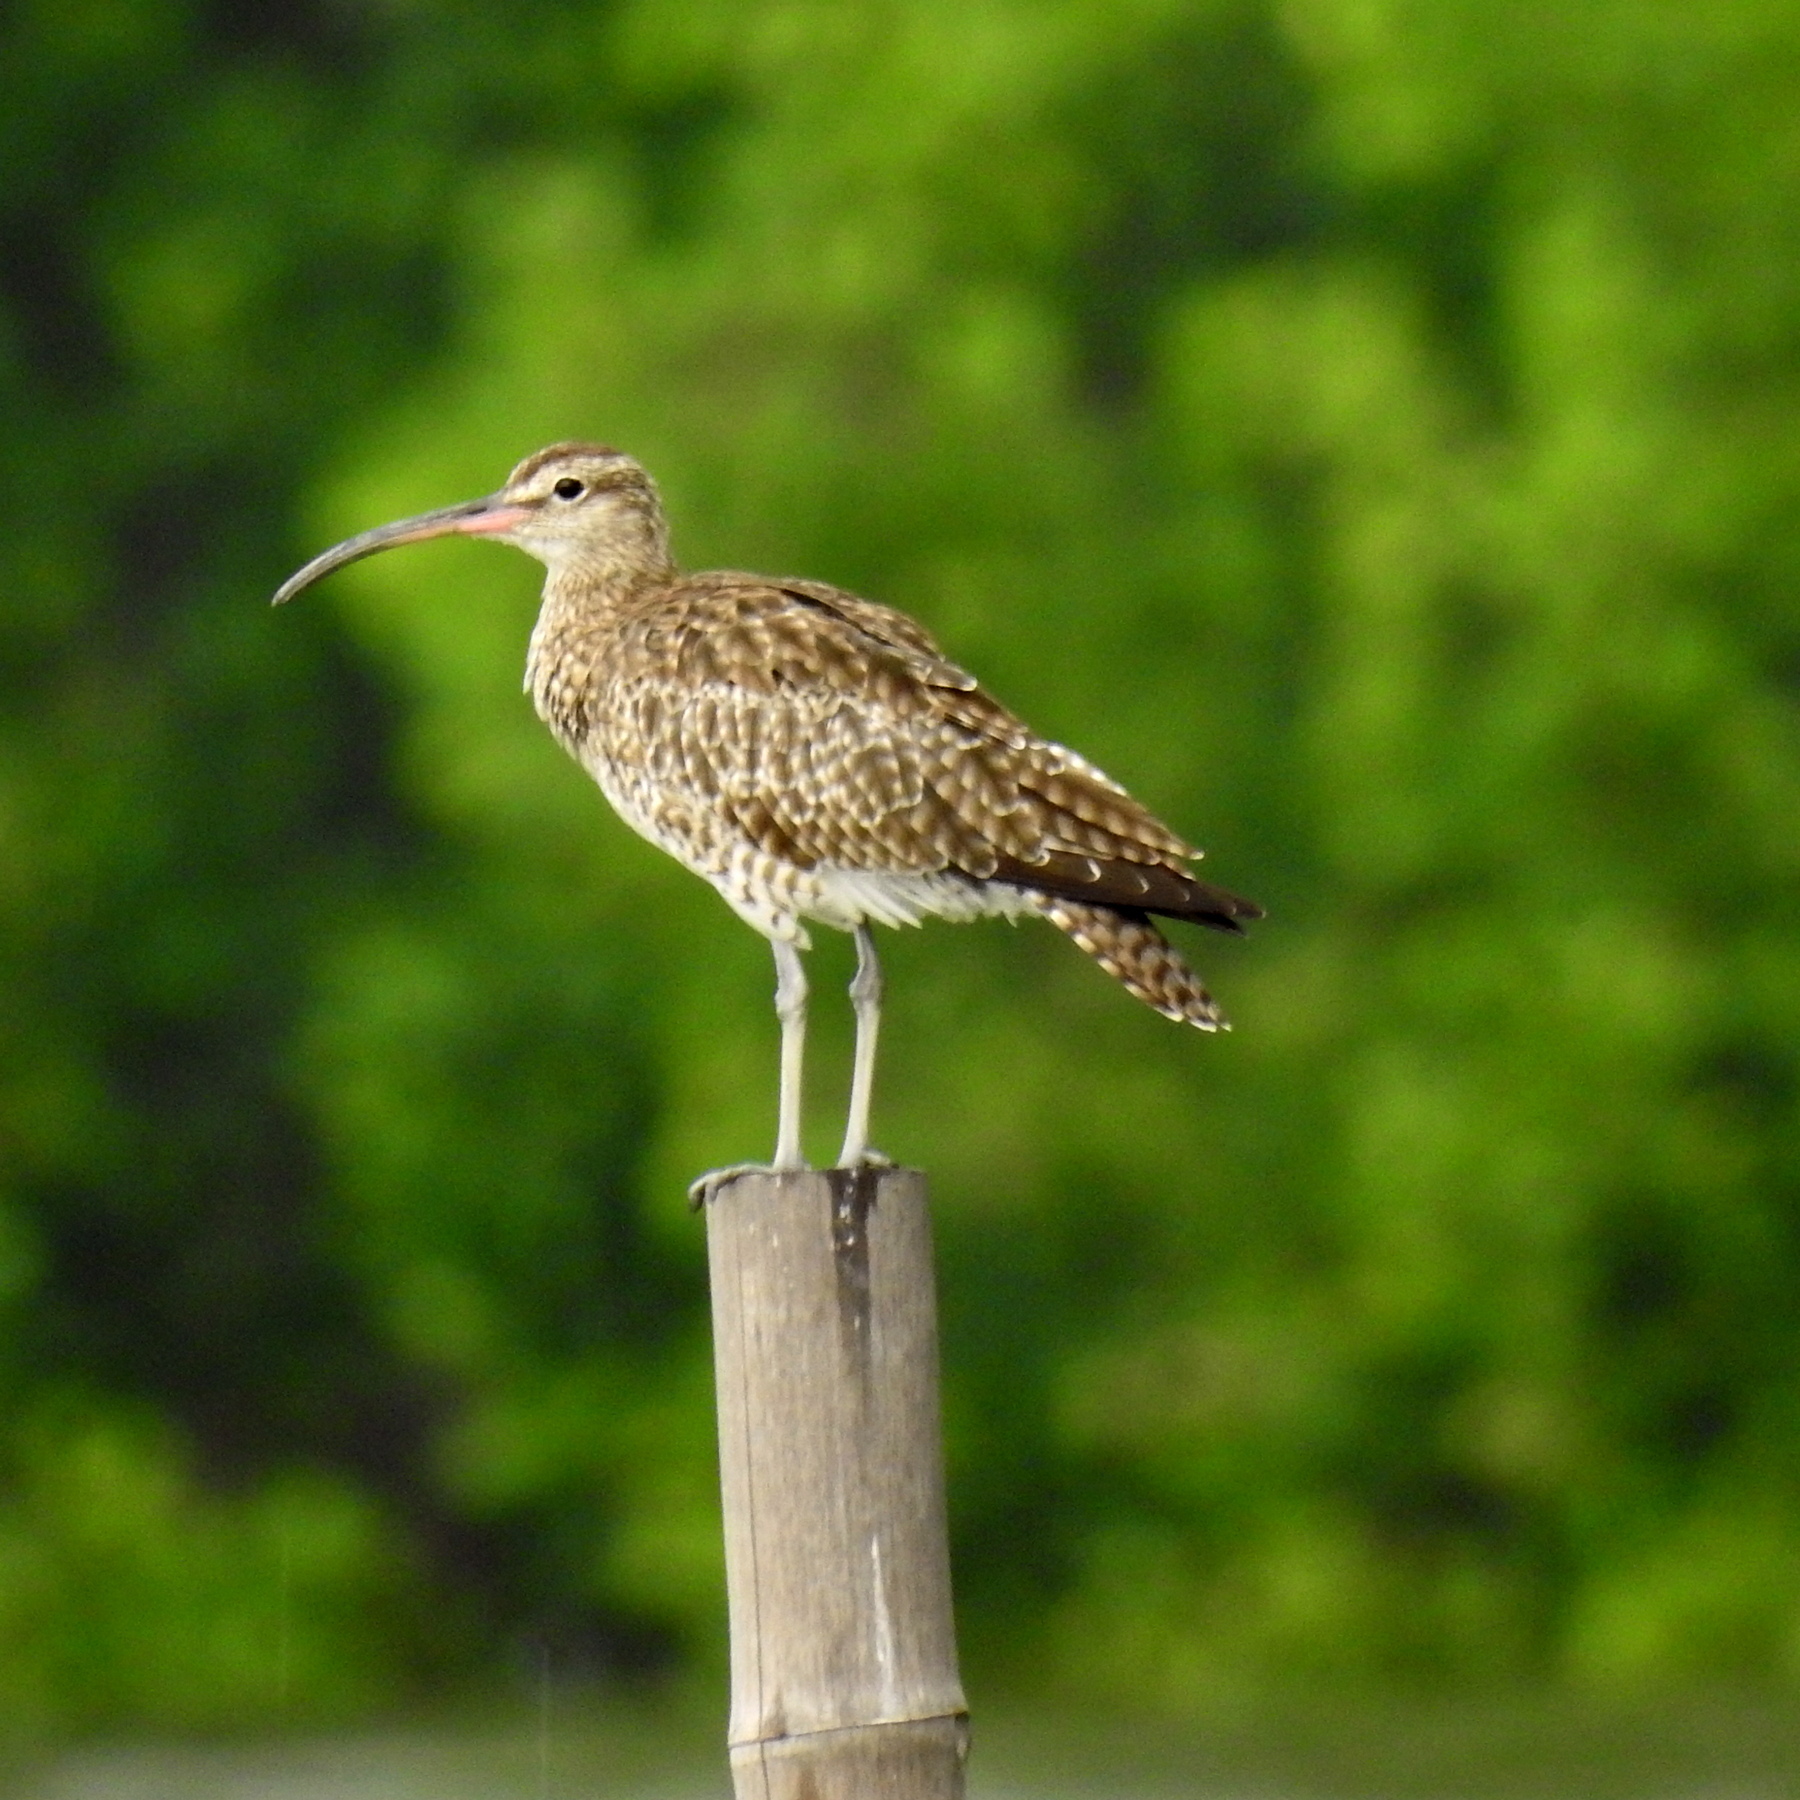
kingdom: Animalia
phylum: Chordata
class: Aves
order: Charadriiformes
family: Scolopacidae
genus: Numenius
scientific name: Numenius phaeopus
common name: Whimbrel
